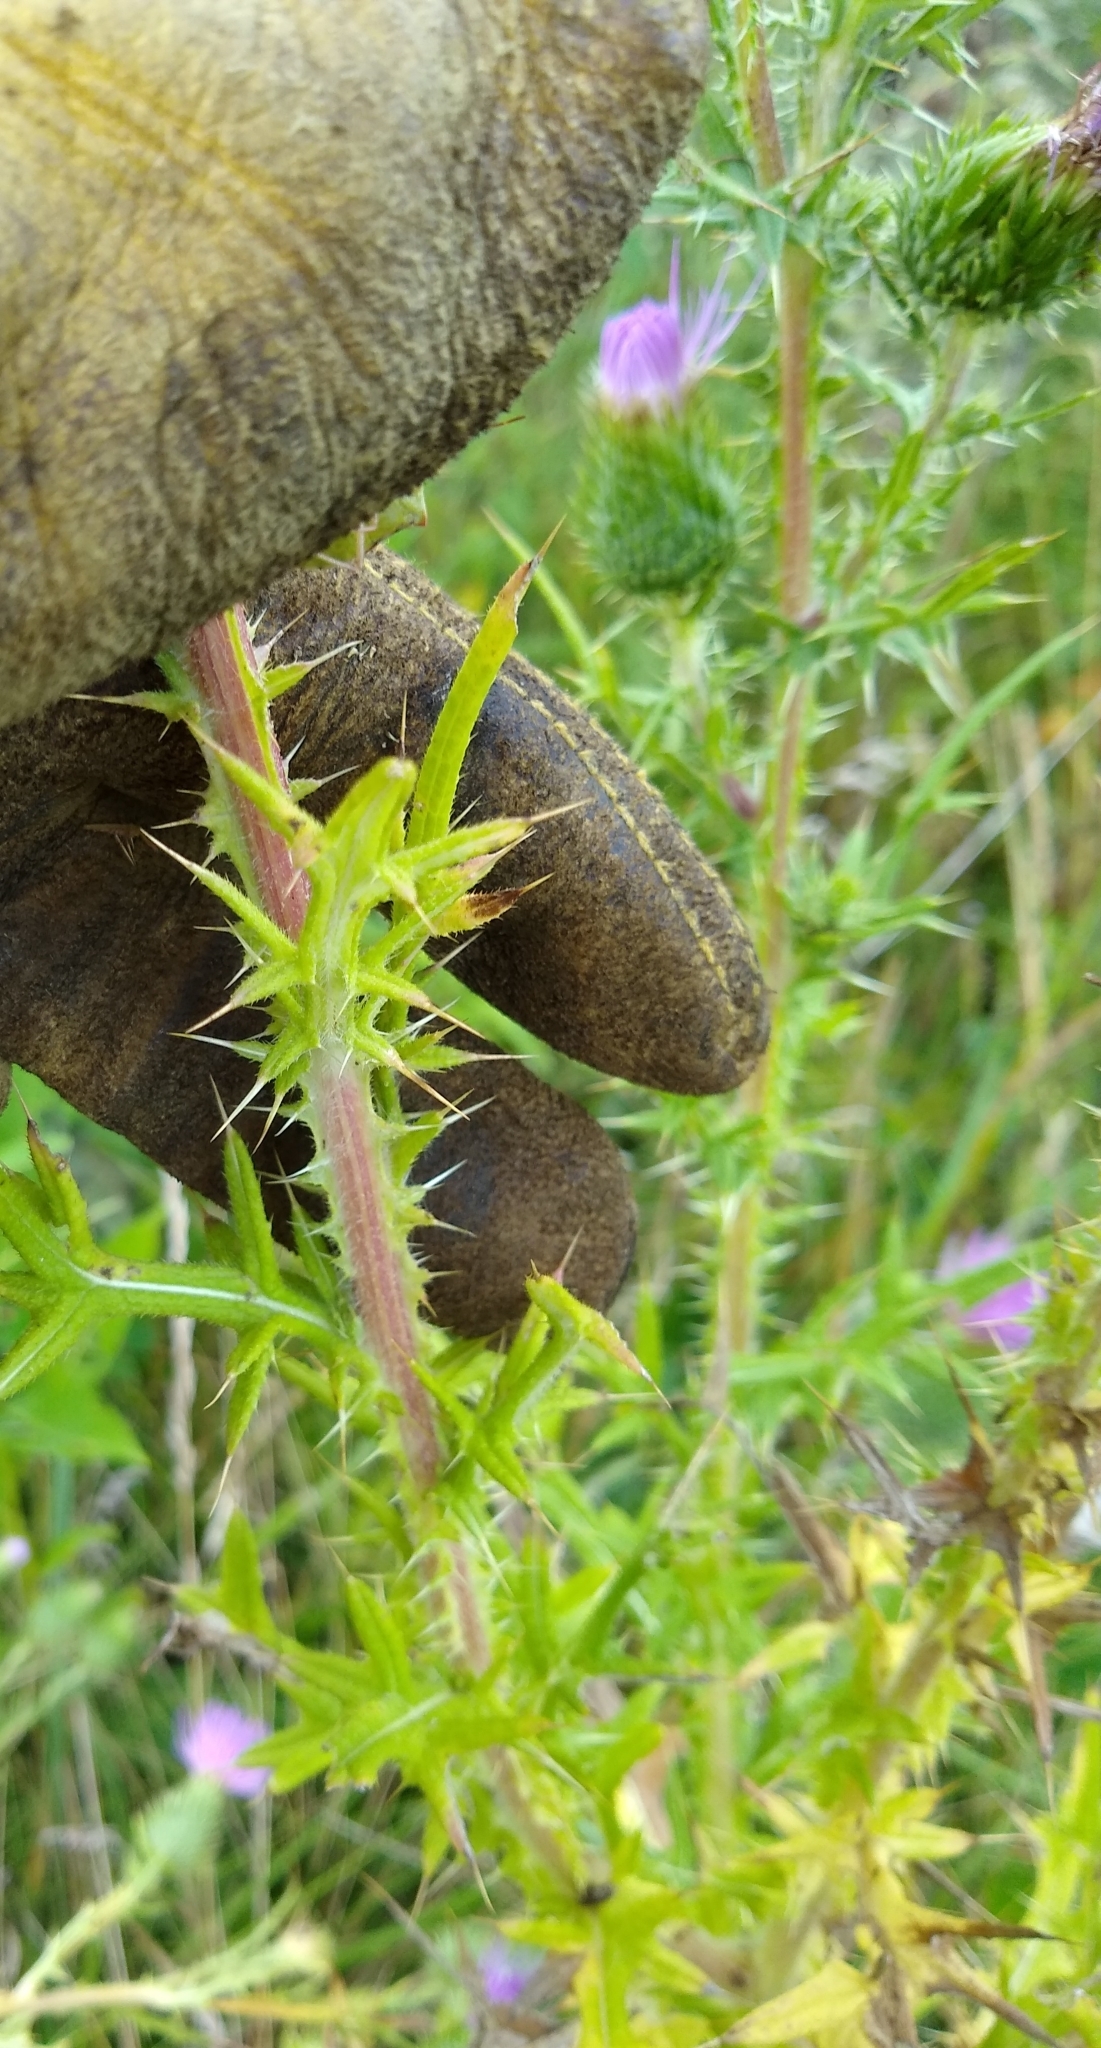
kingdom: Plantae
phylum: Tracheophyta
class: Magnoliopsida
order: Asterales
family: Asteraceae
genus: Cirsium
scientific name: Cirsium vulgare
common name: Bull thistle
